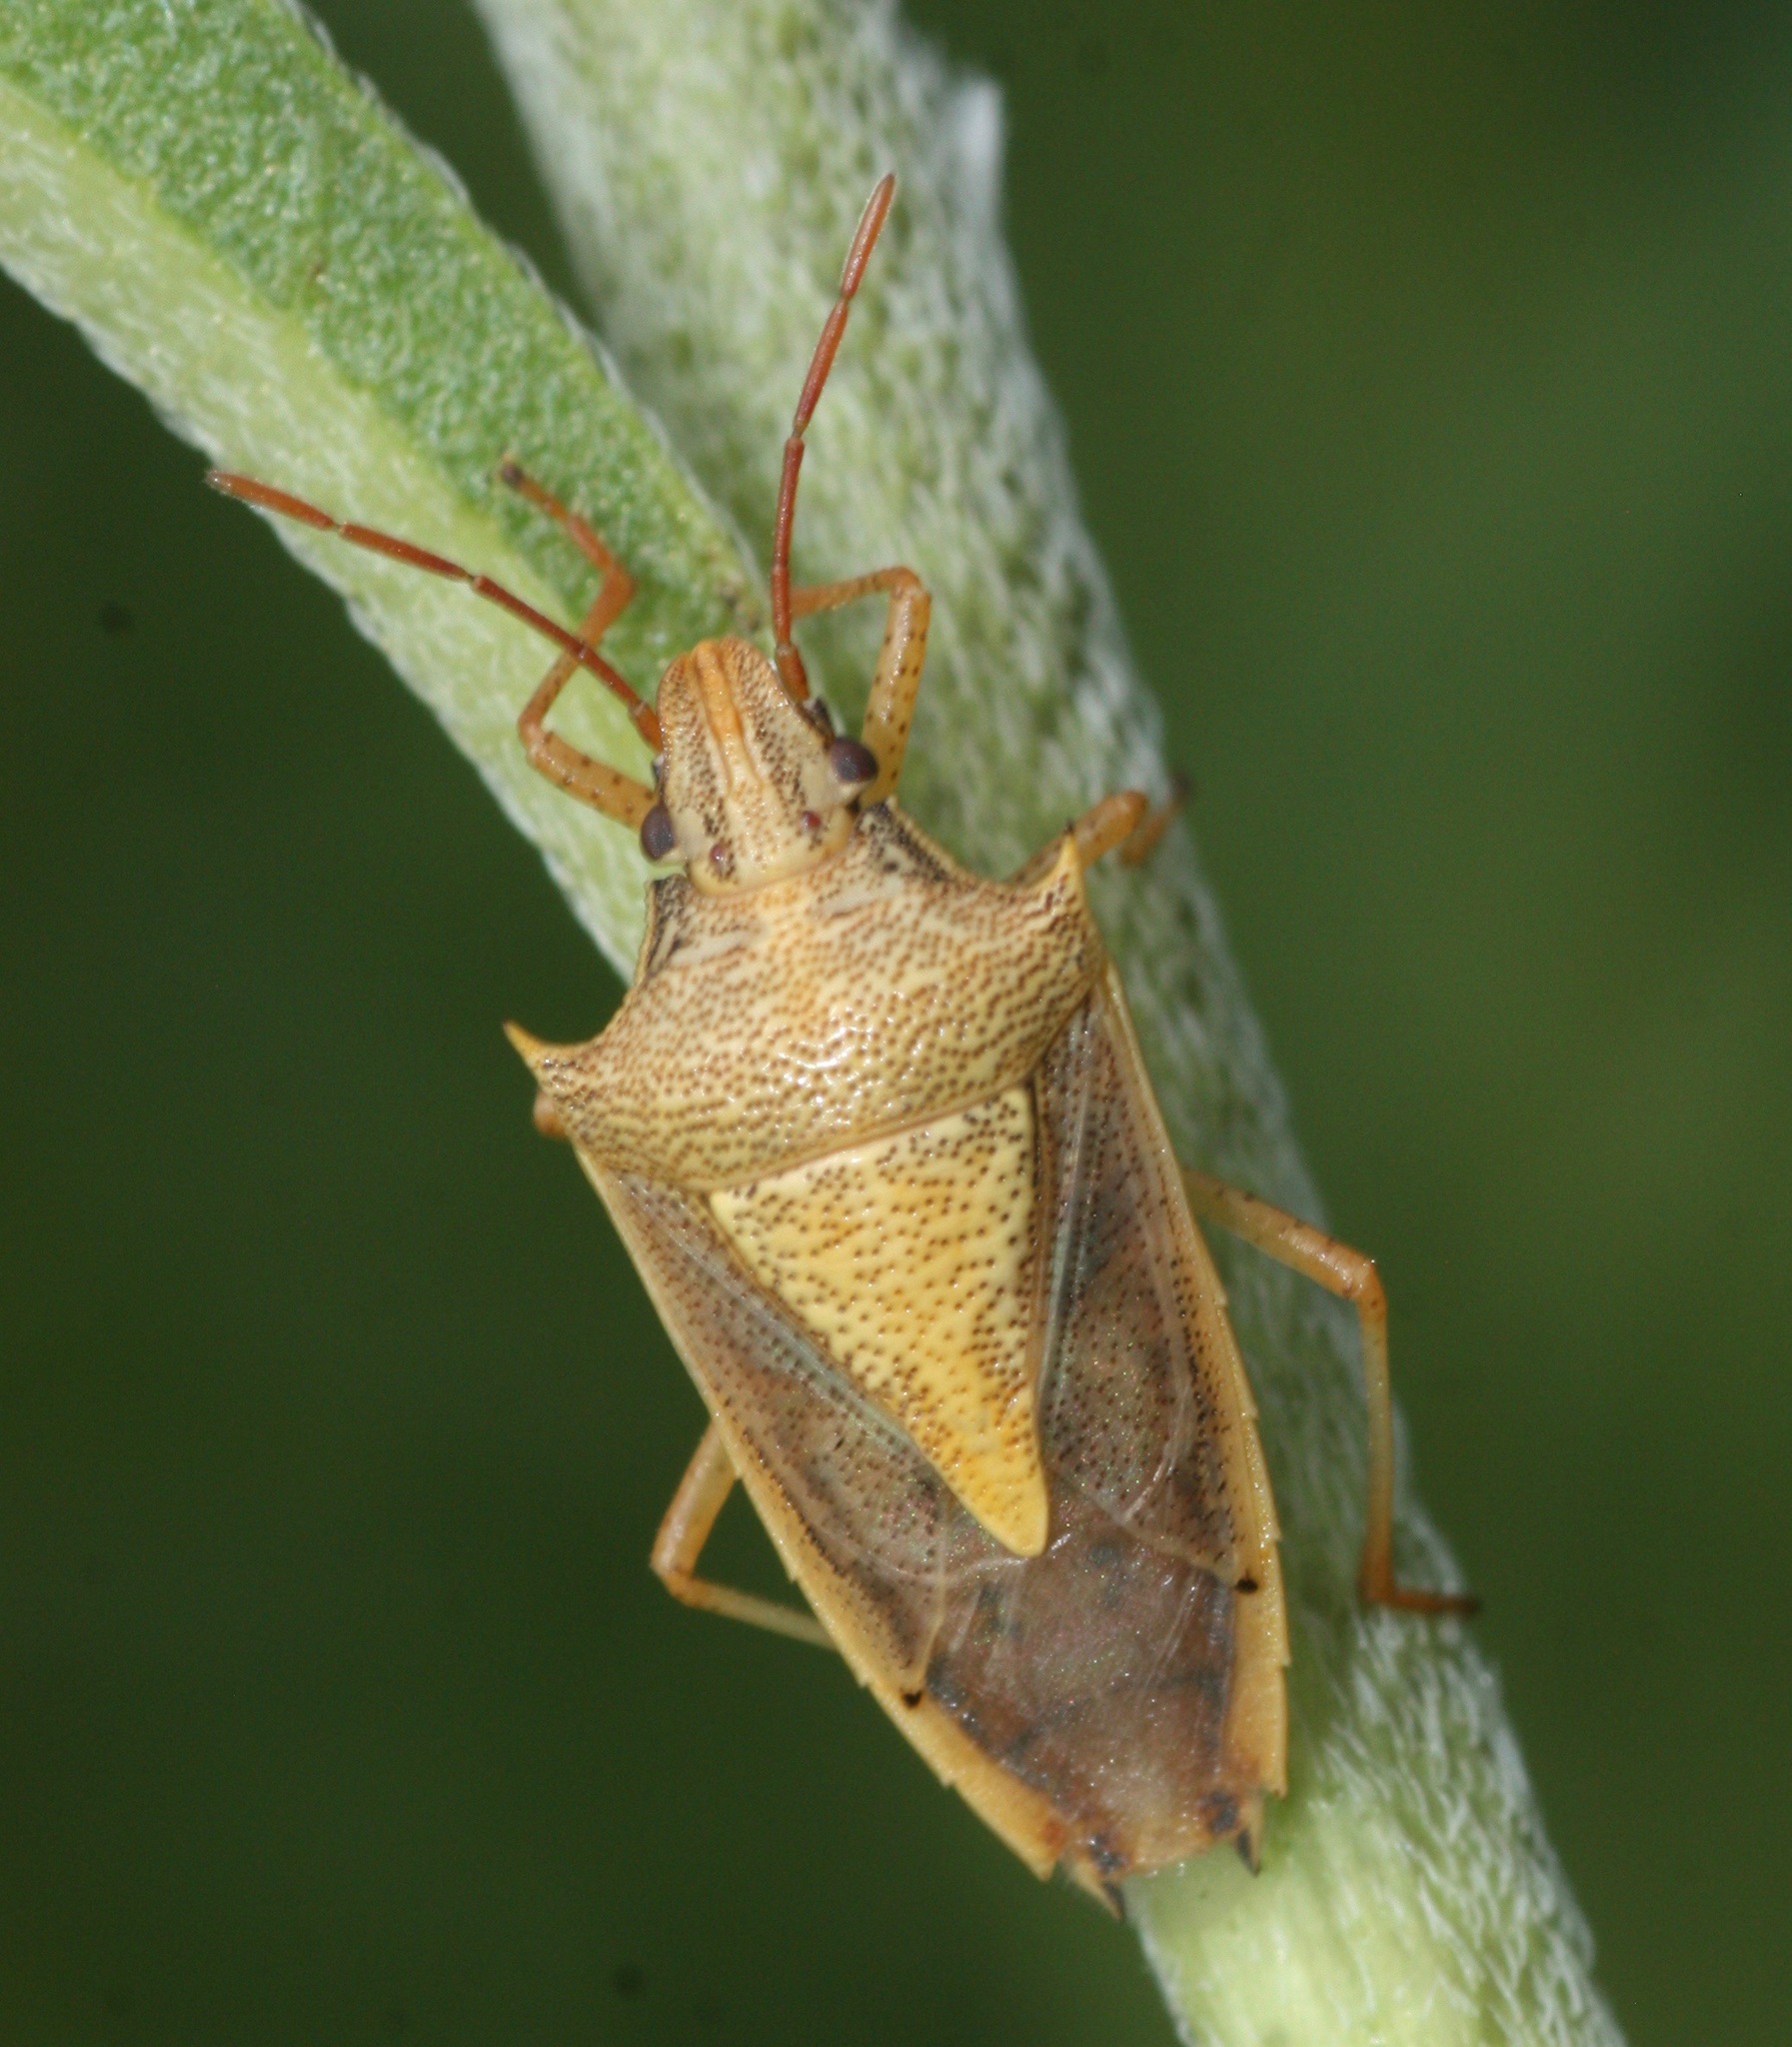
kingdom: Animalia
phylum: Arthropoda
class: Insecta
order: Hemiptera
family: Pentatomidae
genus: Oebalus
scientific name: Oebalus pugnax
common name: Rice stink bug
